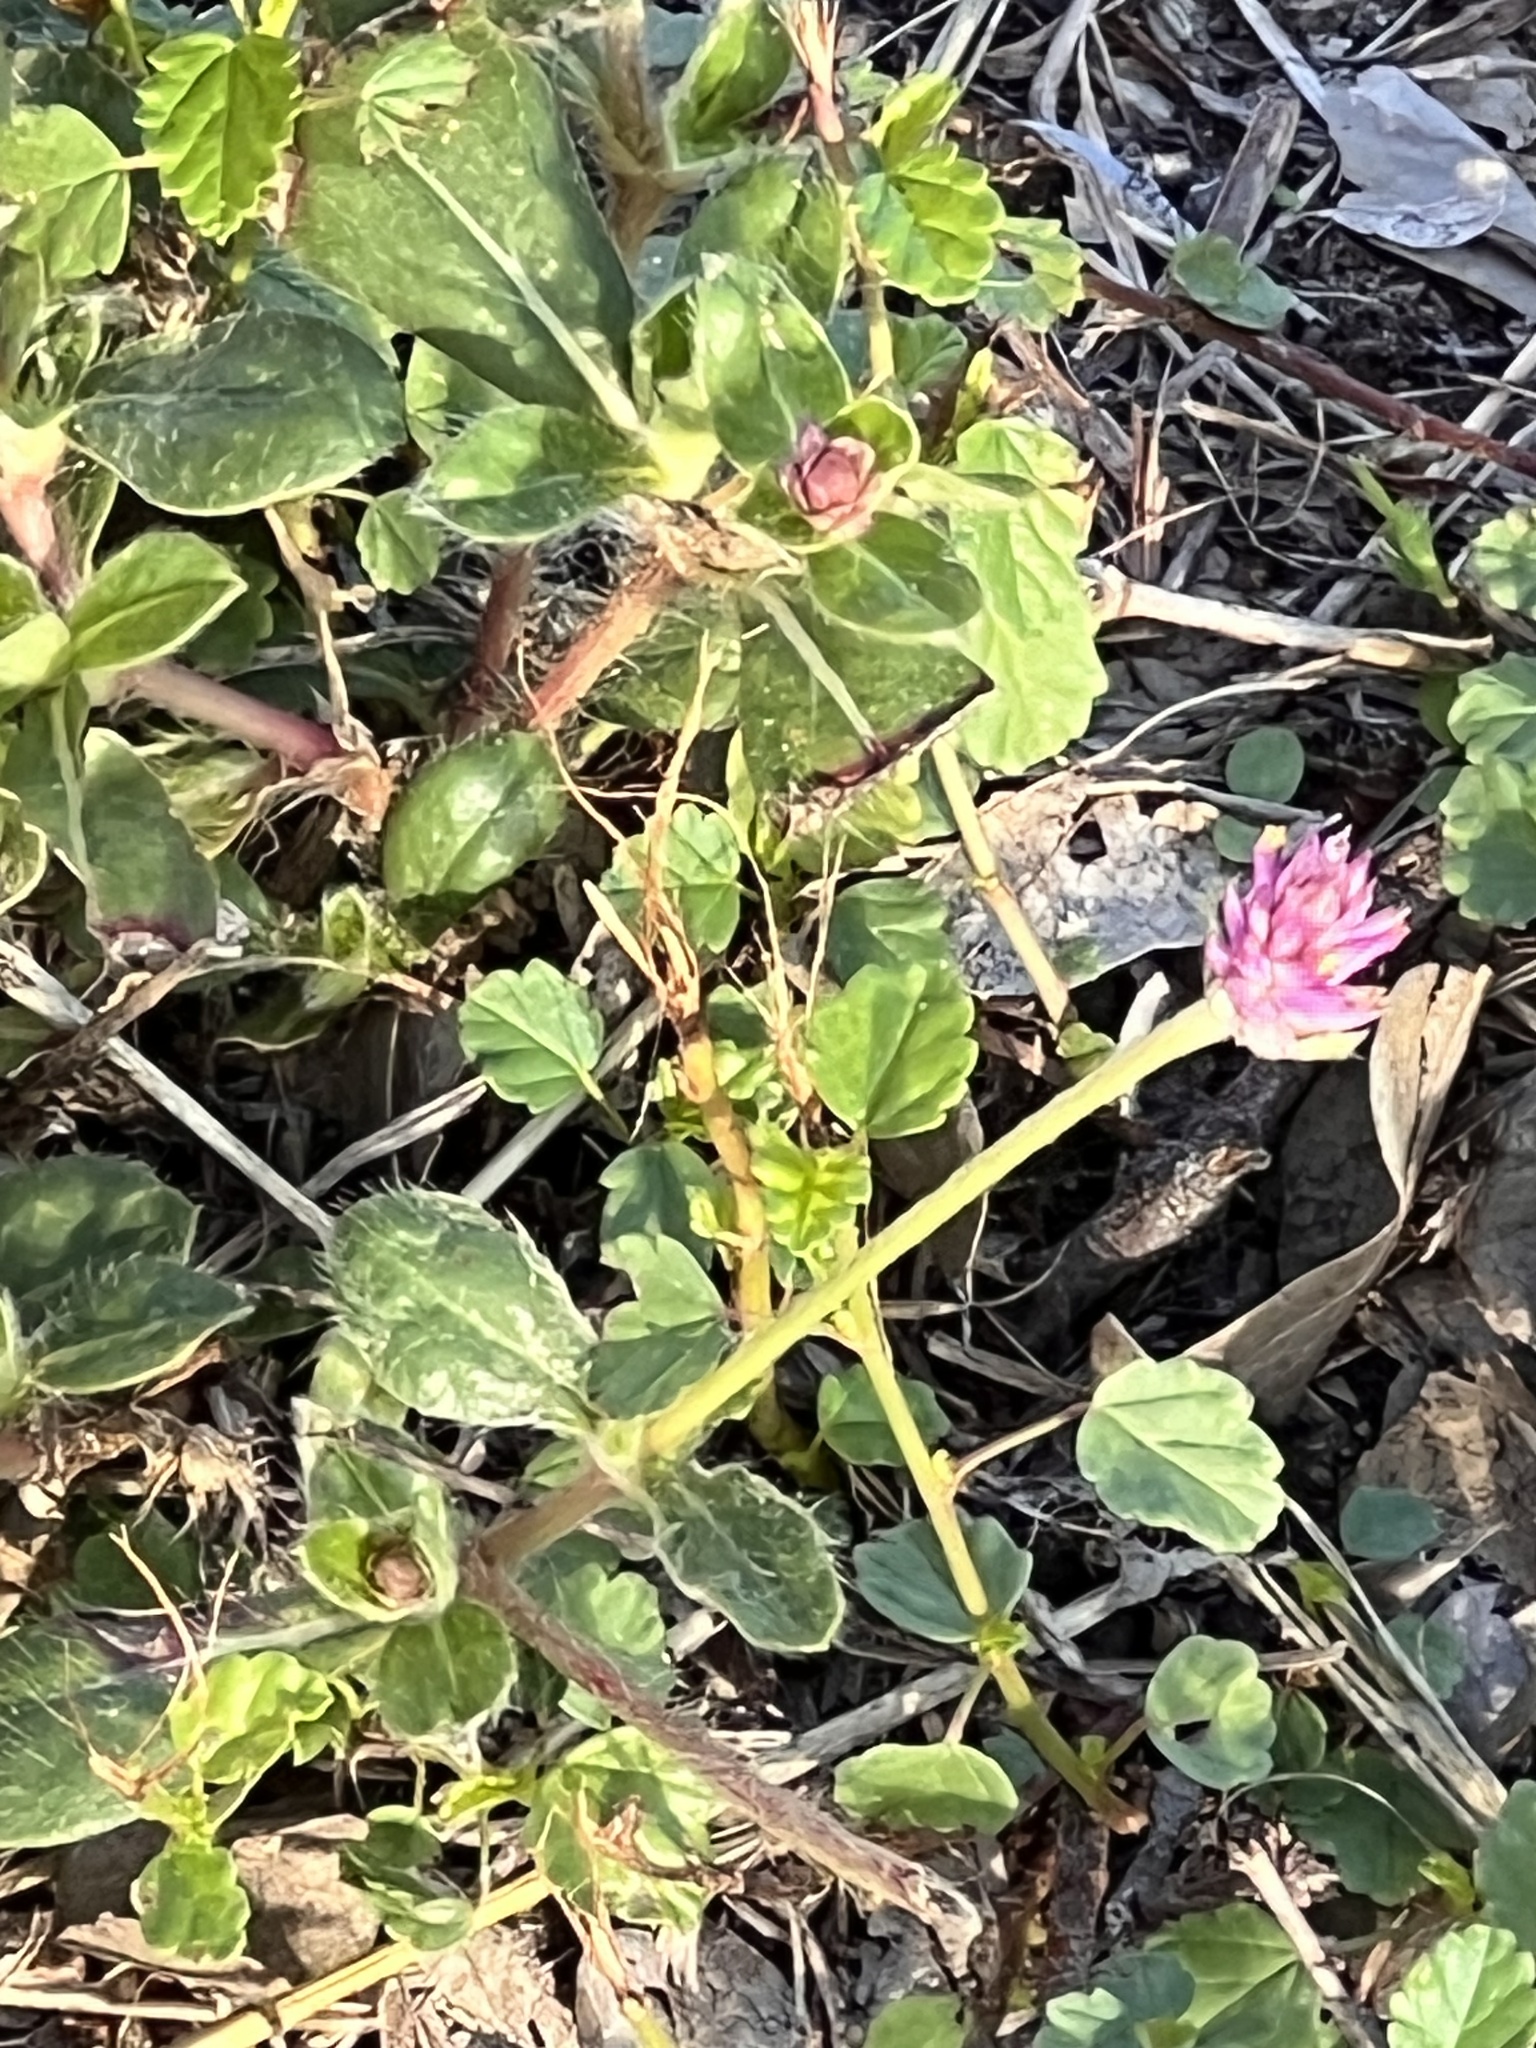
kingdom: Plantae
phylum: Tracheophyta
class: Magnoliopsida
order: Caryophyllales
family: Amaranthaceae
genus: Gomphrena
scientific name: Gomphrena serrata
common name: Arrasa con todo
